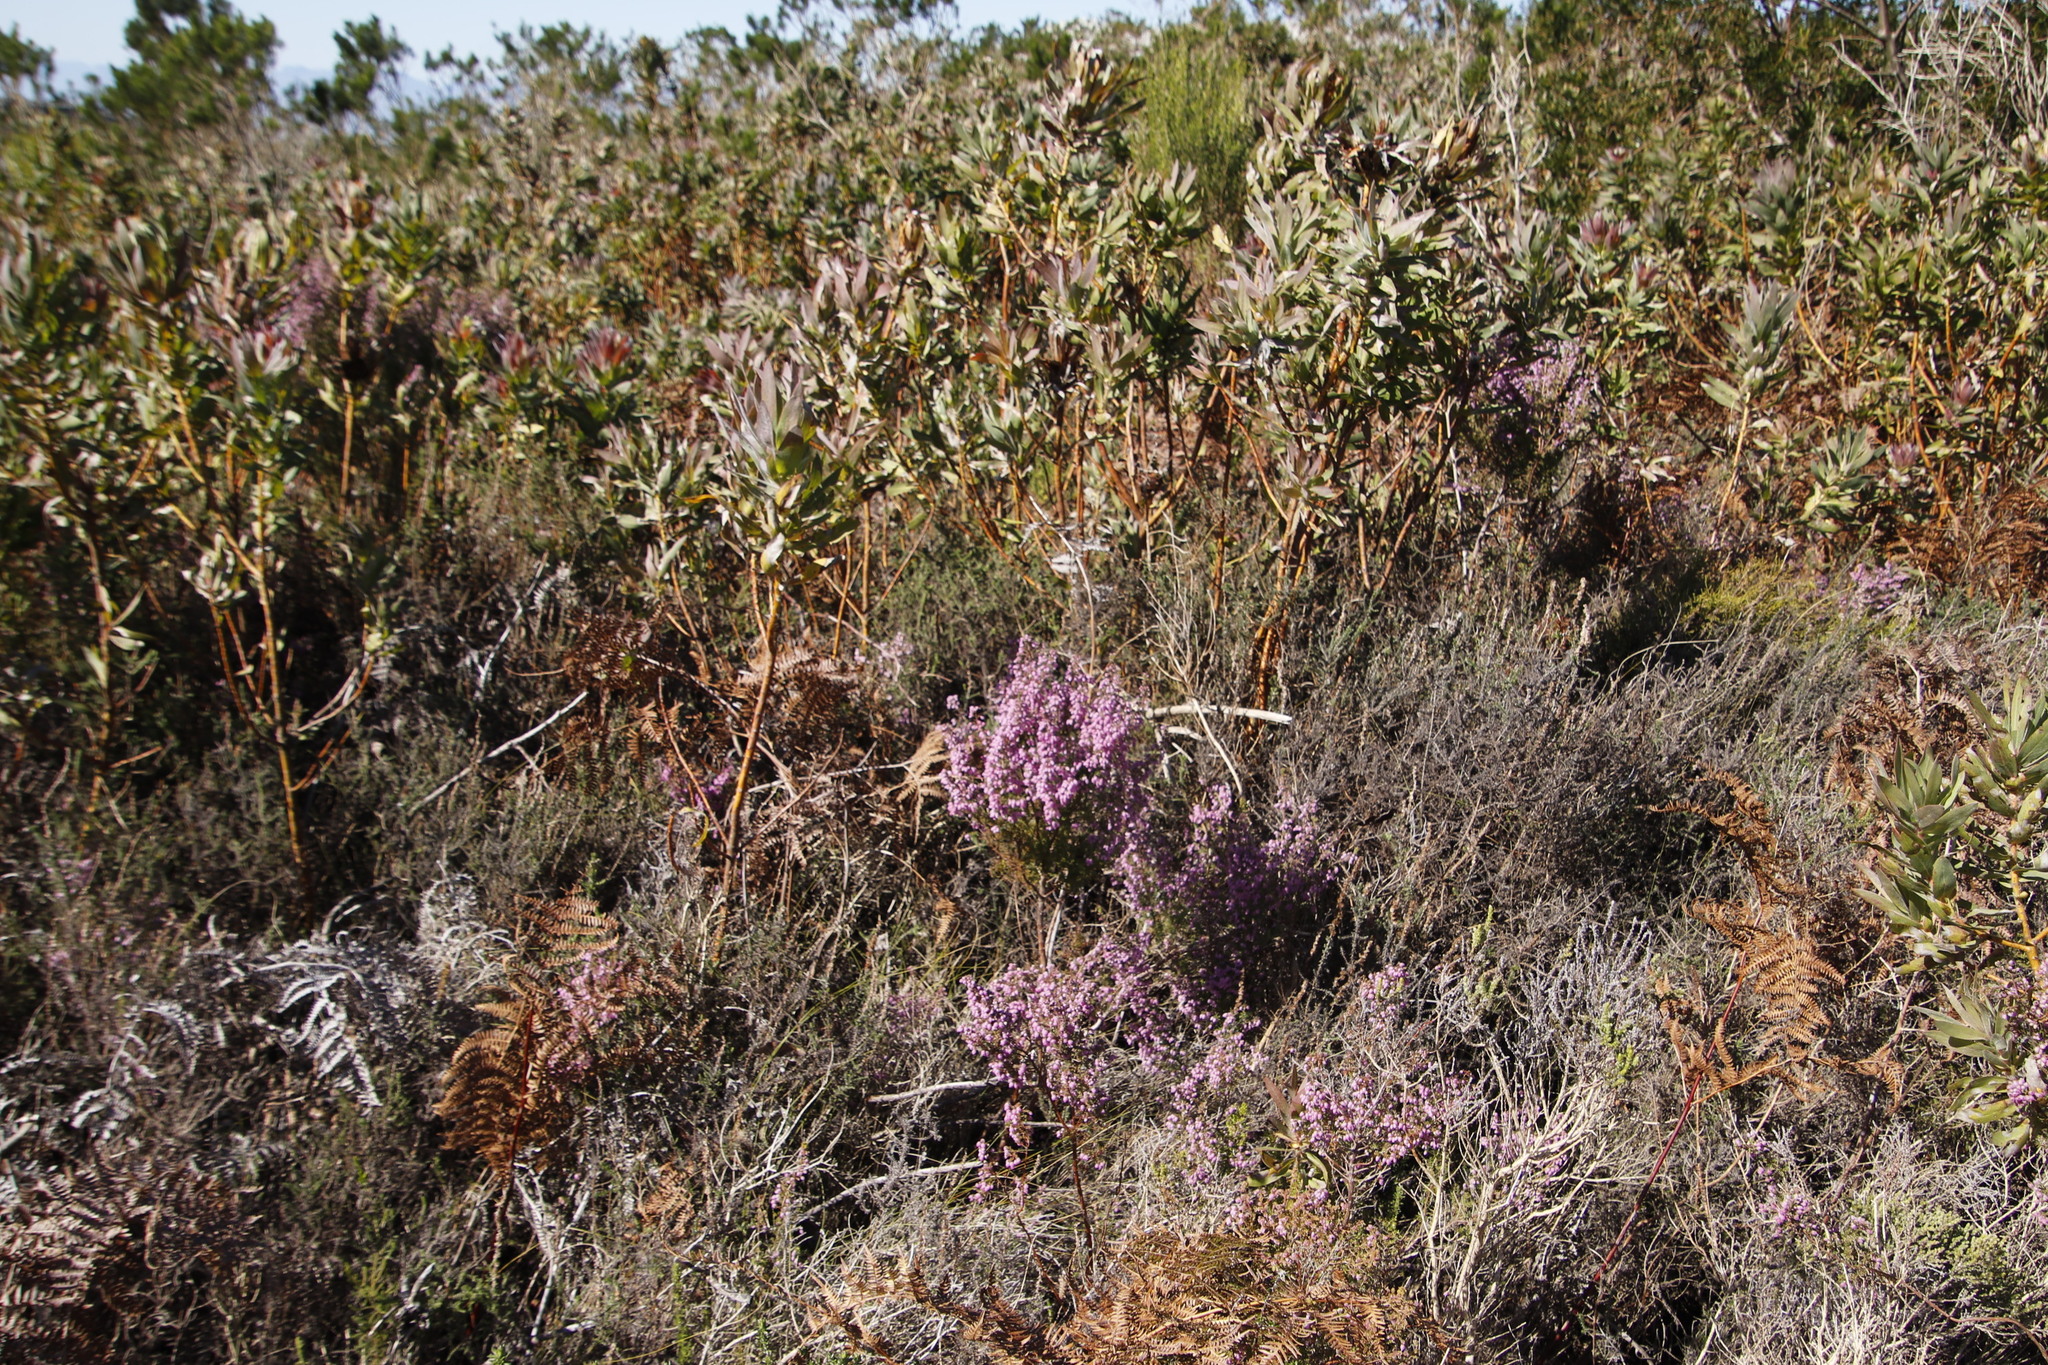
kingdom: Plantae
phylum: Tracheophyta
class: Magnoliopsida
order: Ericales
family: Ericaceae
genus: Erica
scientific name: Erica hirtiflora
